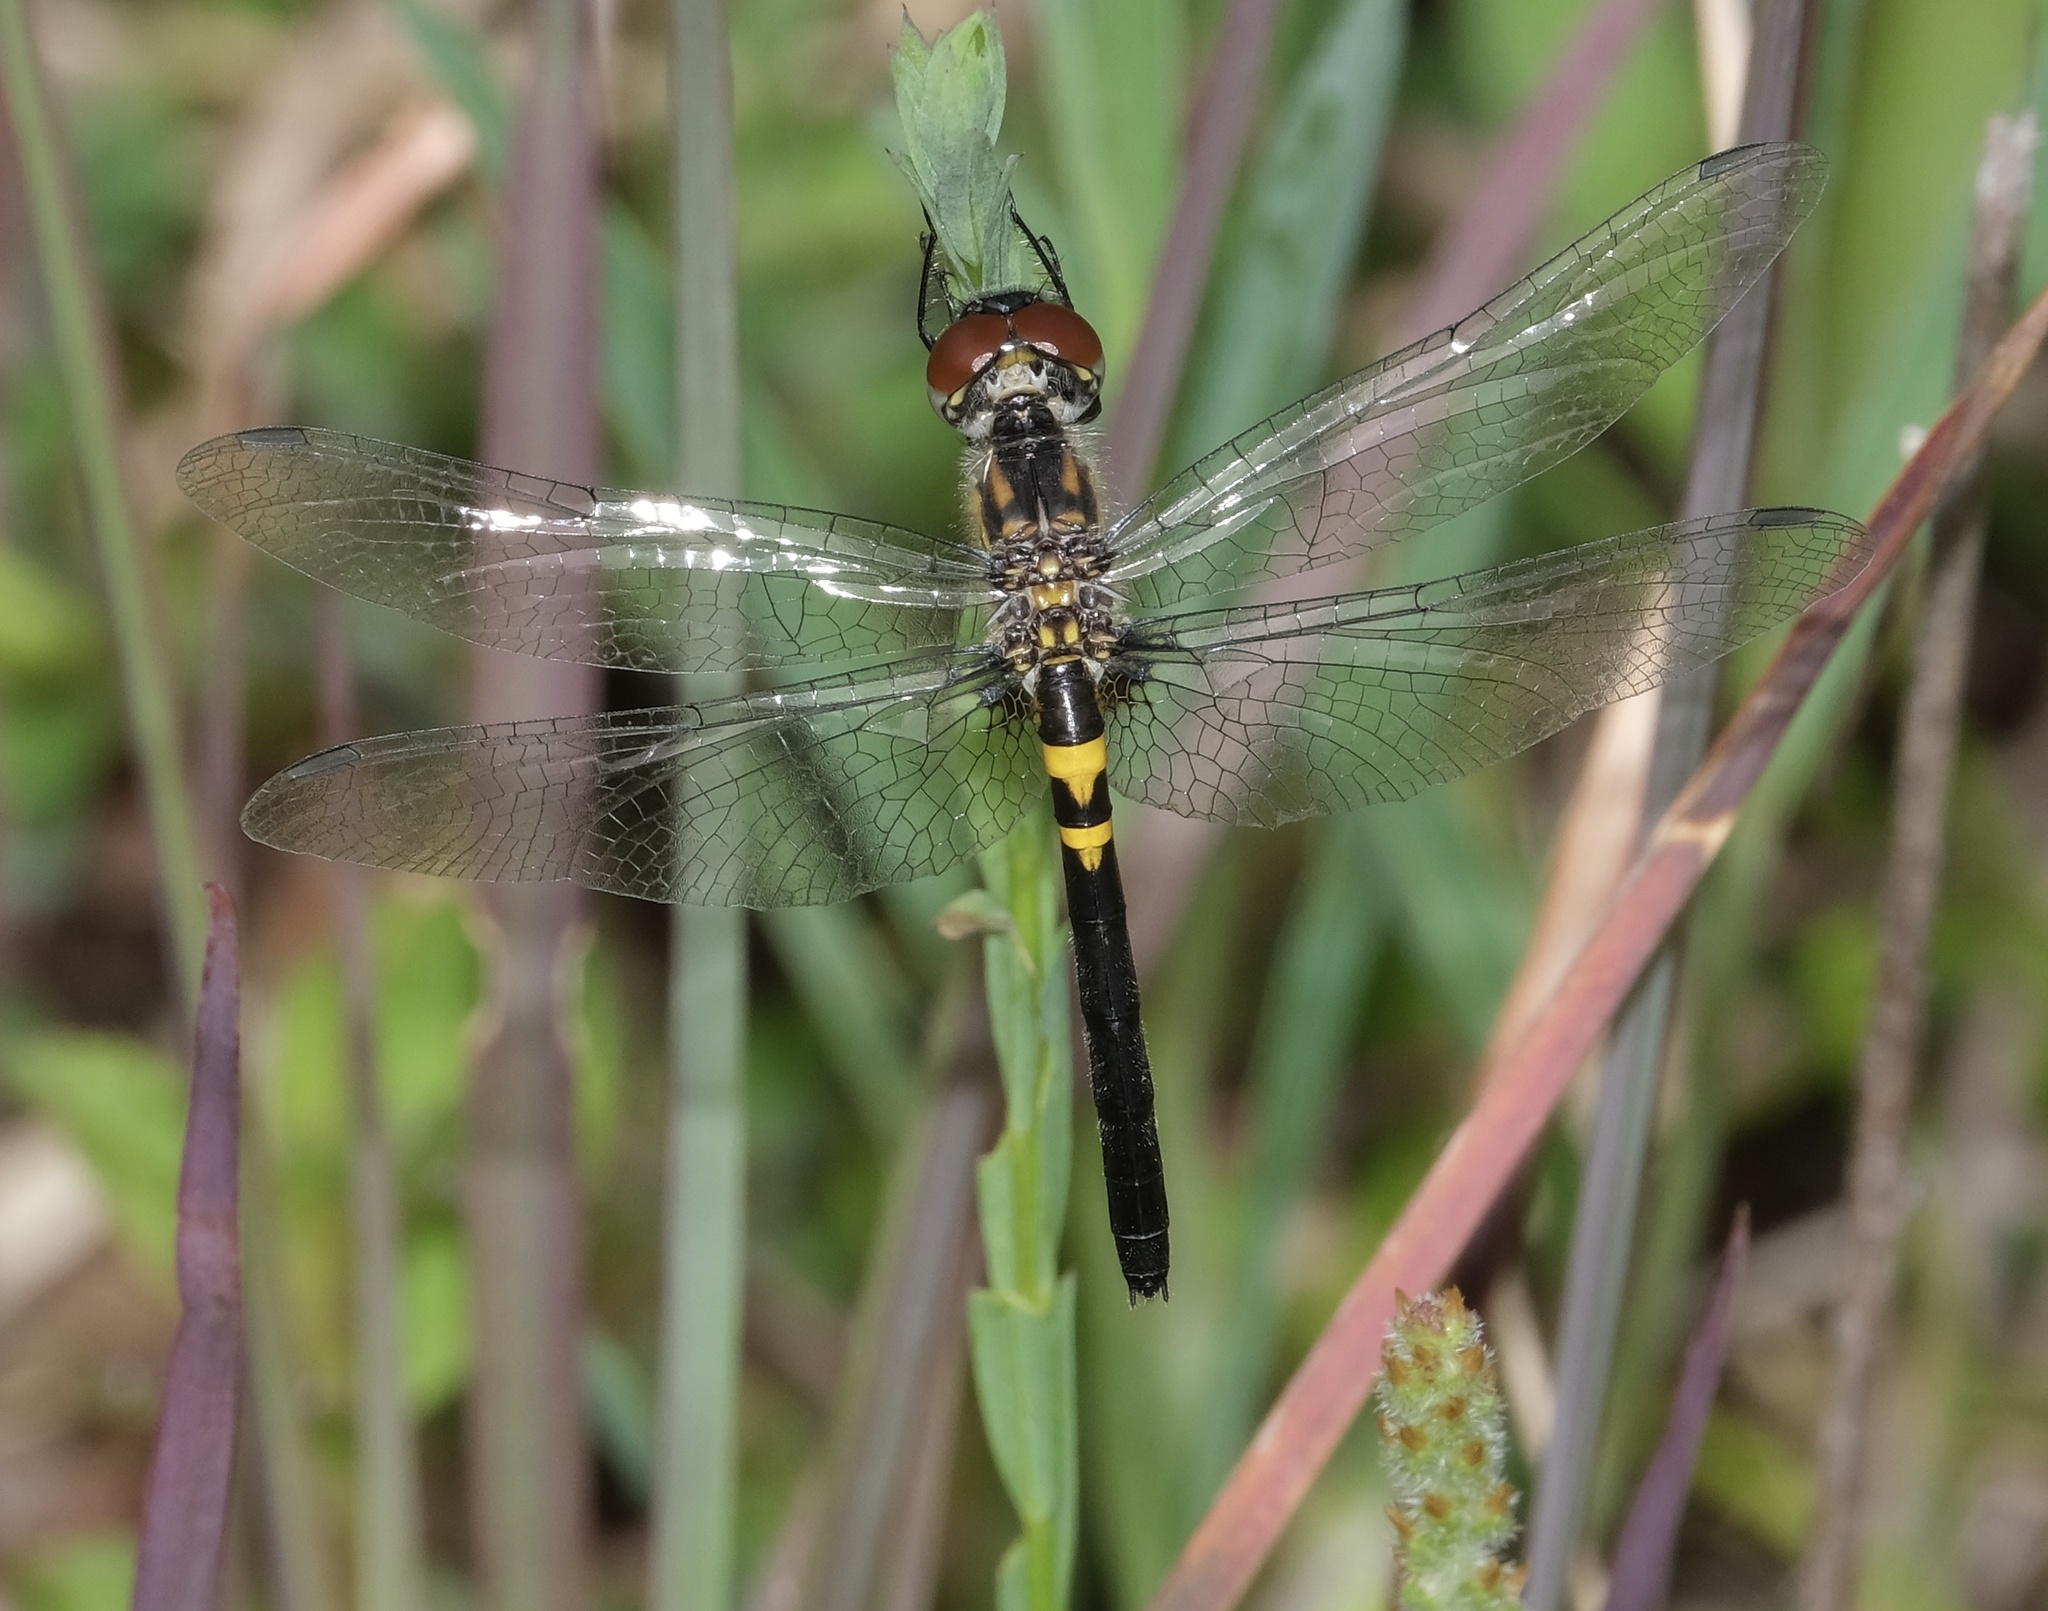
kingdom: Animalia
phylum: Arthropoda
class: Insecta
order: Odonata
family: Libellulidae
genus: Celithemis
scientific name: Celithemis verna
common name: Double-ringed pennant
